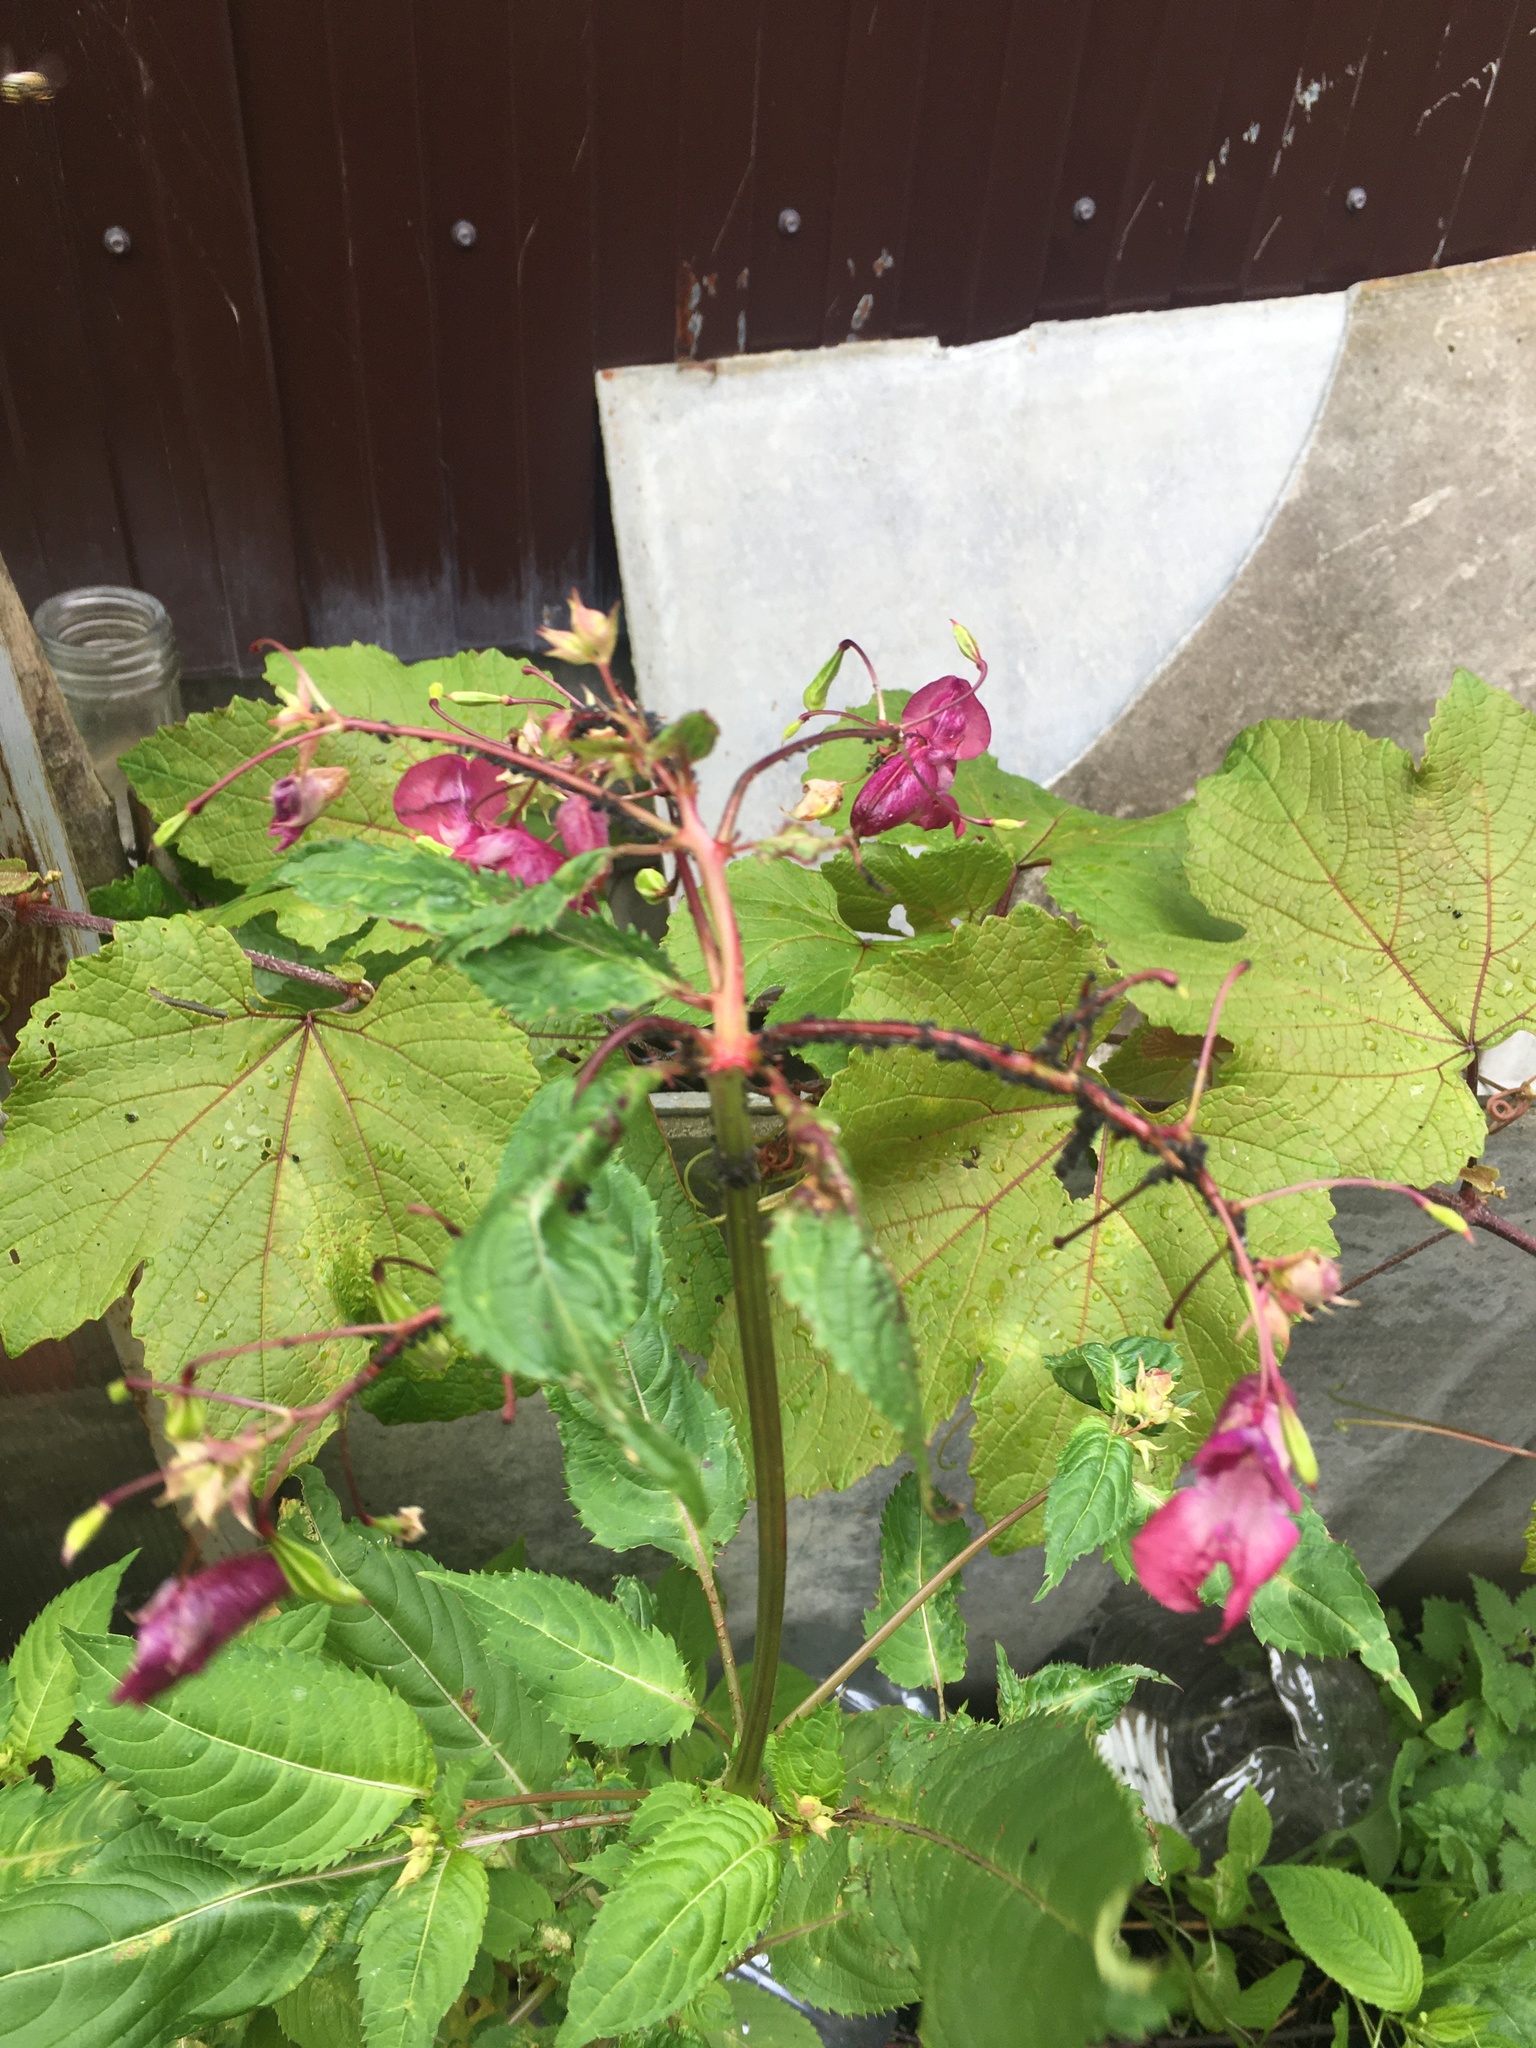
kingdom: Plantae
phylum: Tracheophyta
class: Magnoliopsida
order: Ericales
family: Balsaminaceae
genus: Impatiens
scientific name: Impatiens glandulifera
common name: Himalayan balsam
